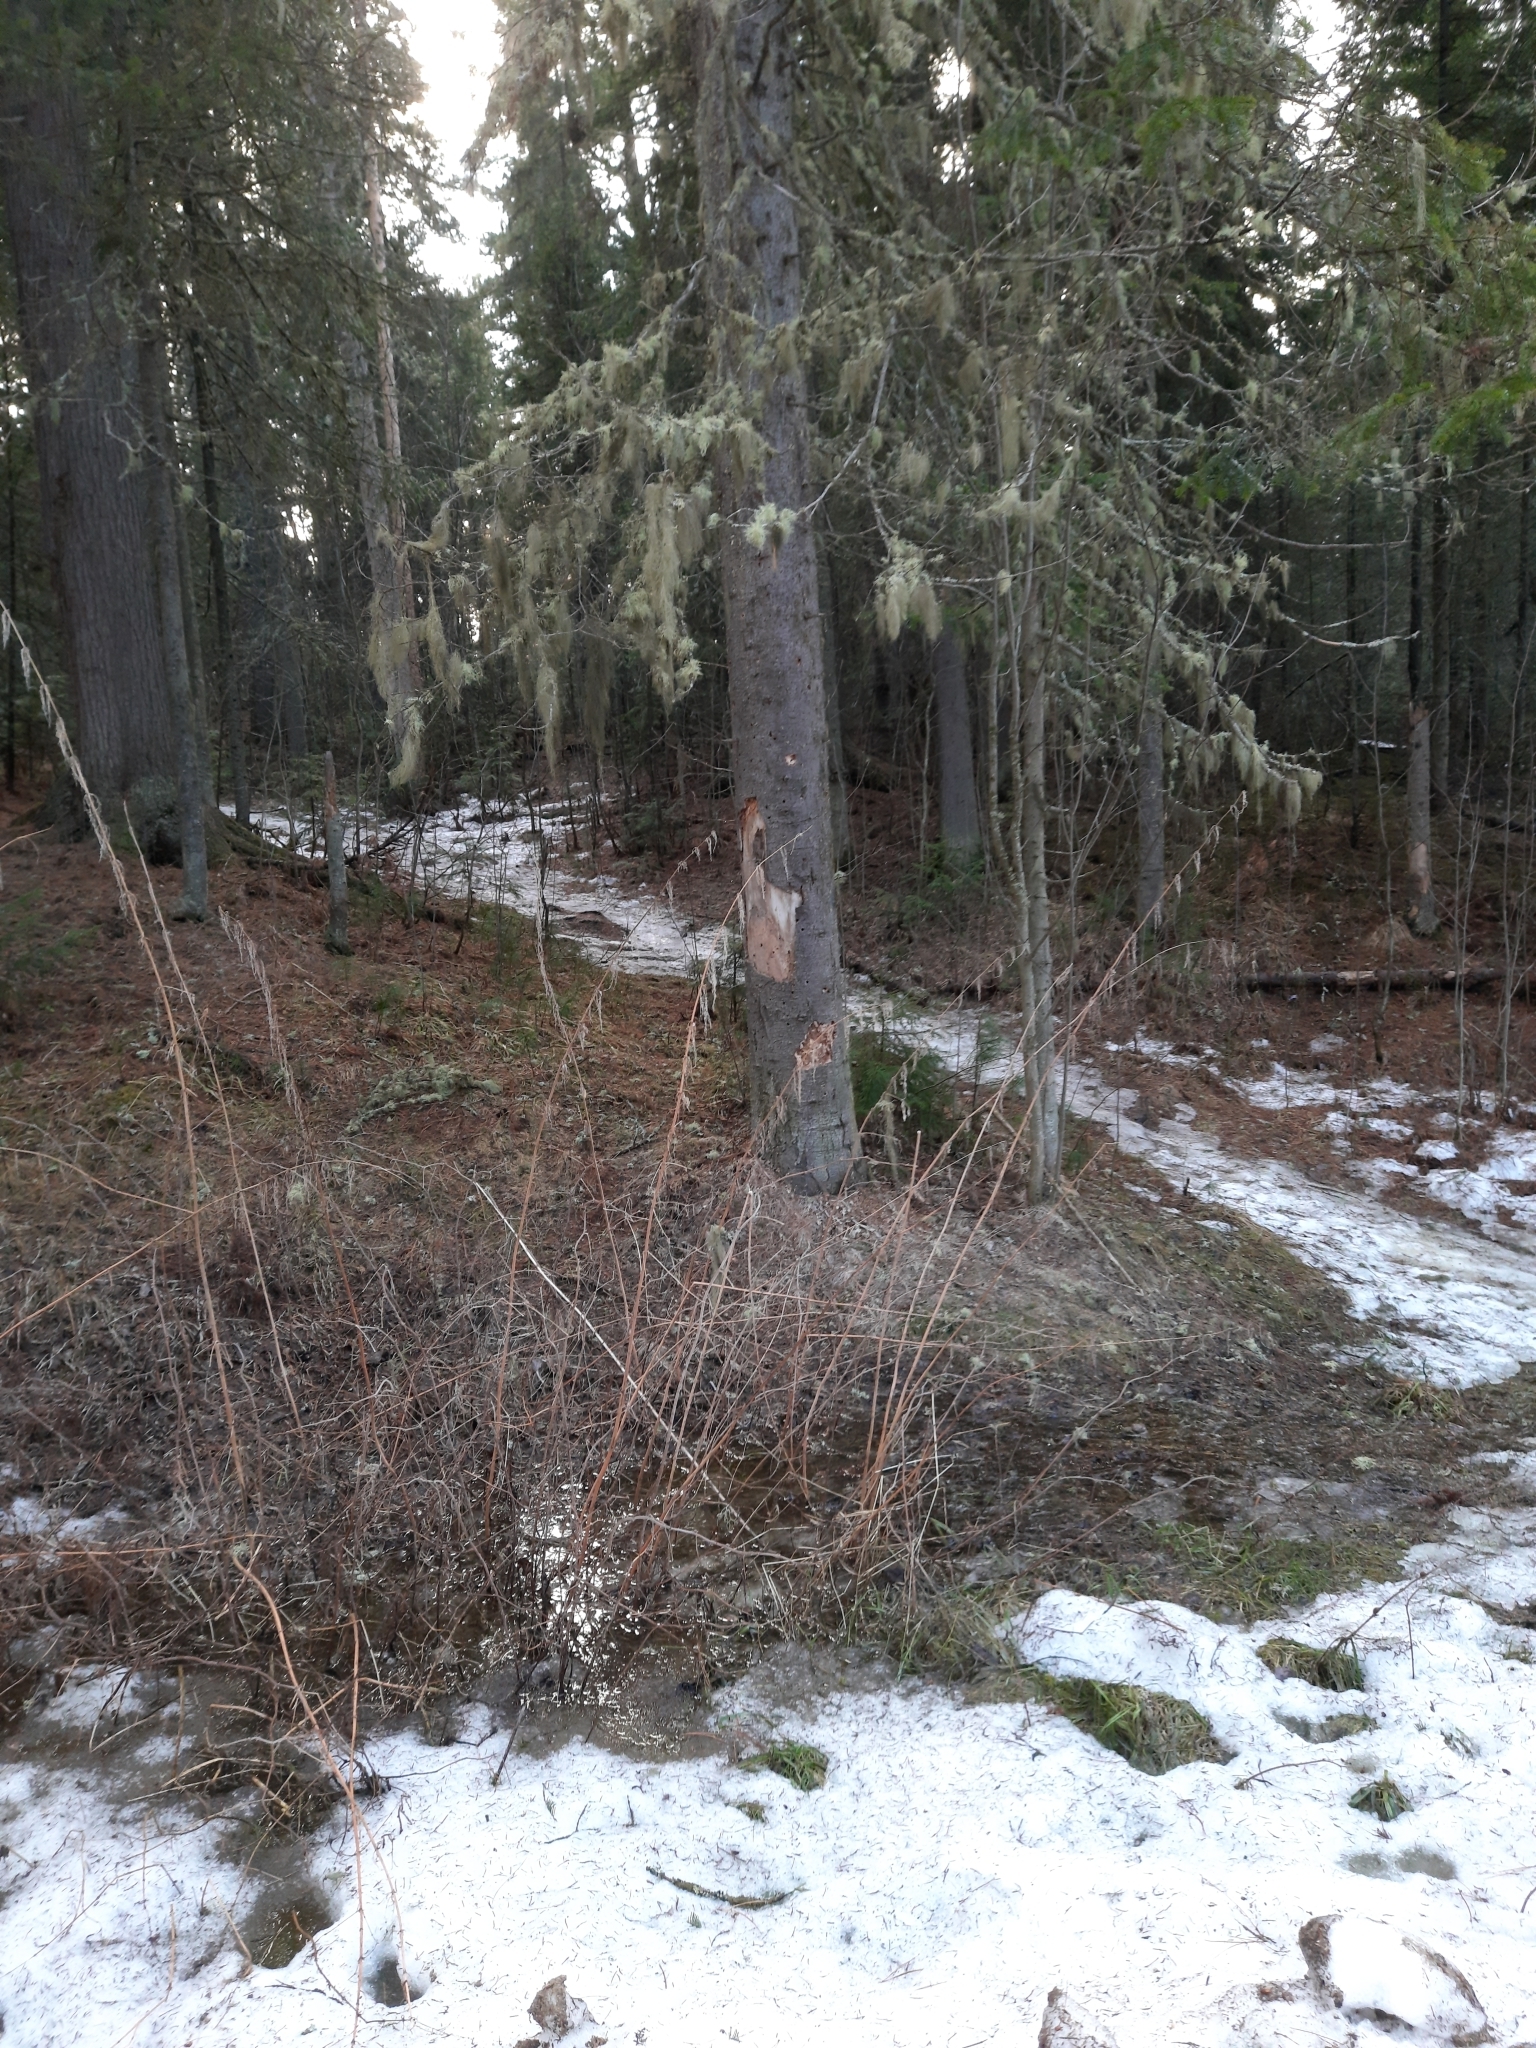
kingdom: Plantae
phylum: Tracheophyta
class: Magnoliopsida
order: Rosales
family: Urticaceae
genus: Urtica
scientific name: Urtica dioica
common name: Common nettle
